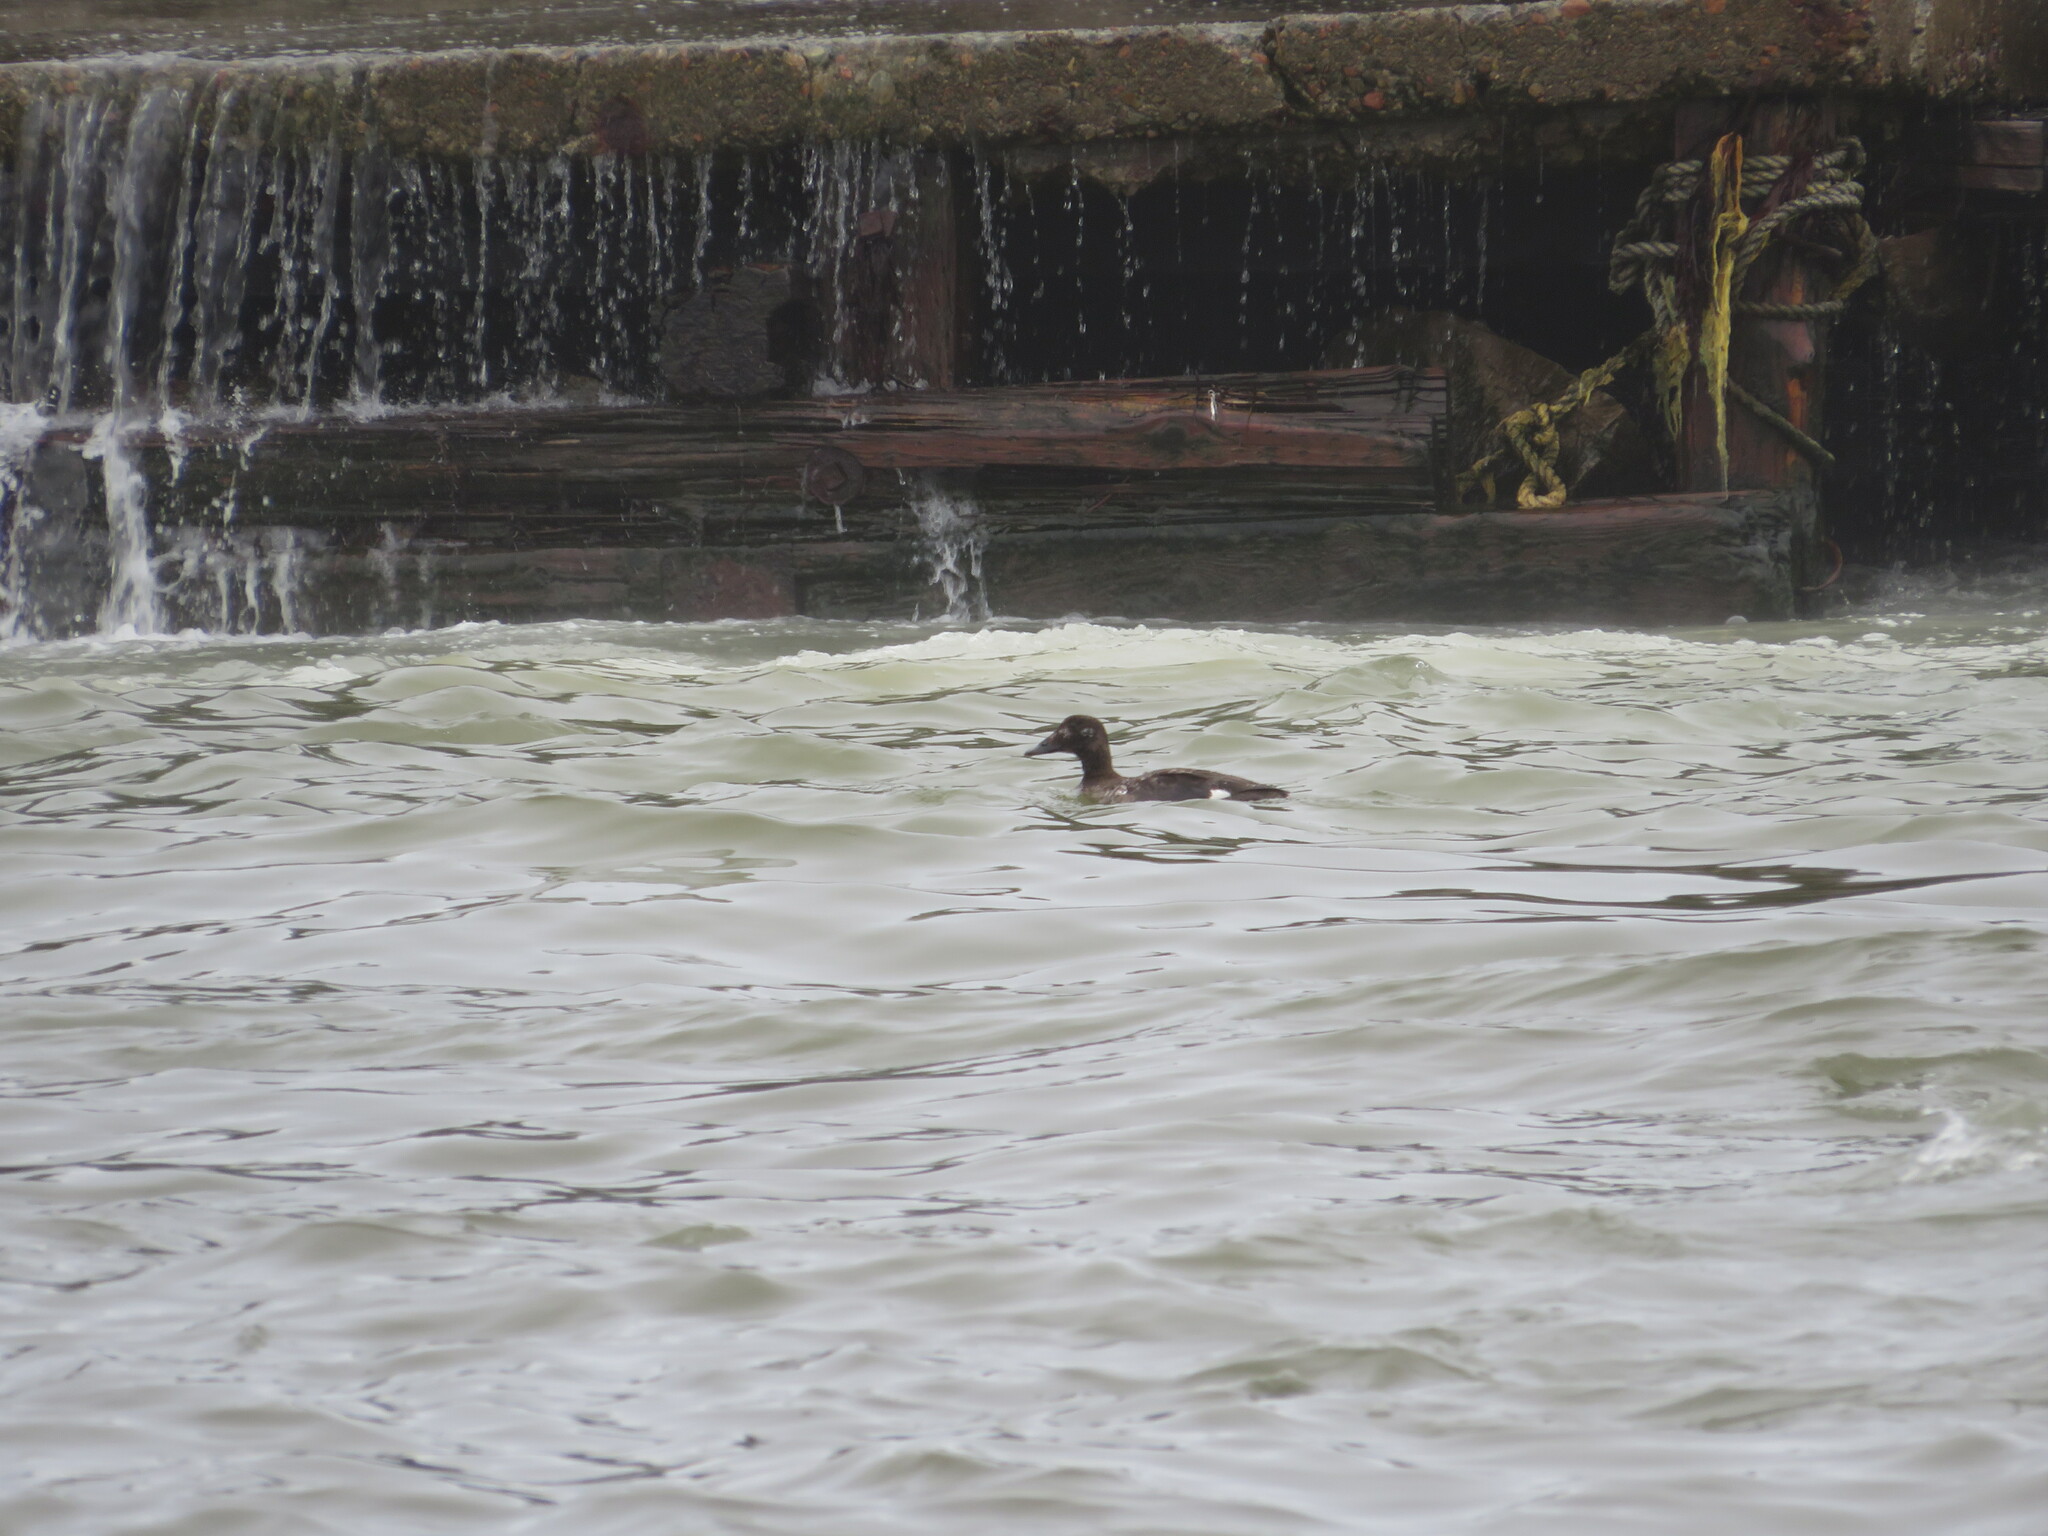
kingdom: Animalia
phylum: Chordata
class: Aves
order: Anseriformes
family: Anatidae
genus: Melanitta
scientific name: Melanitta deglandi
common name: White-winged scoter
